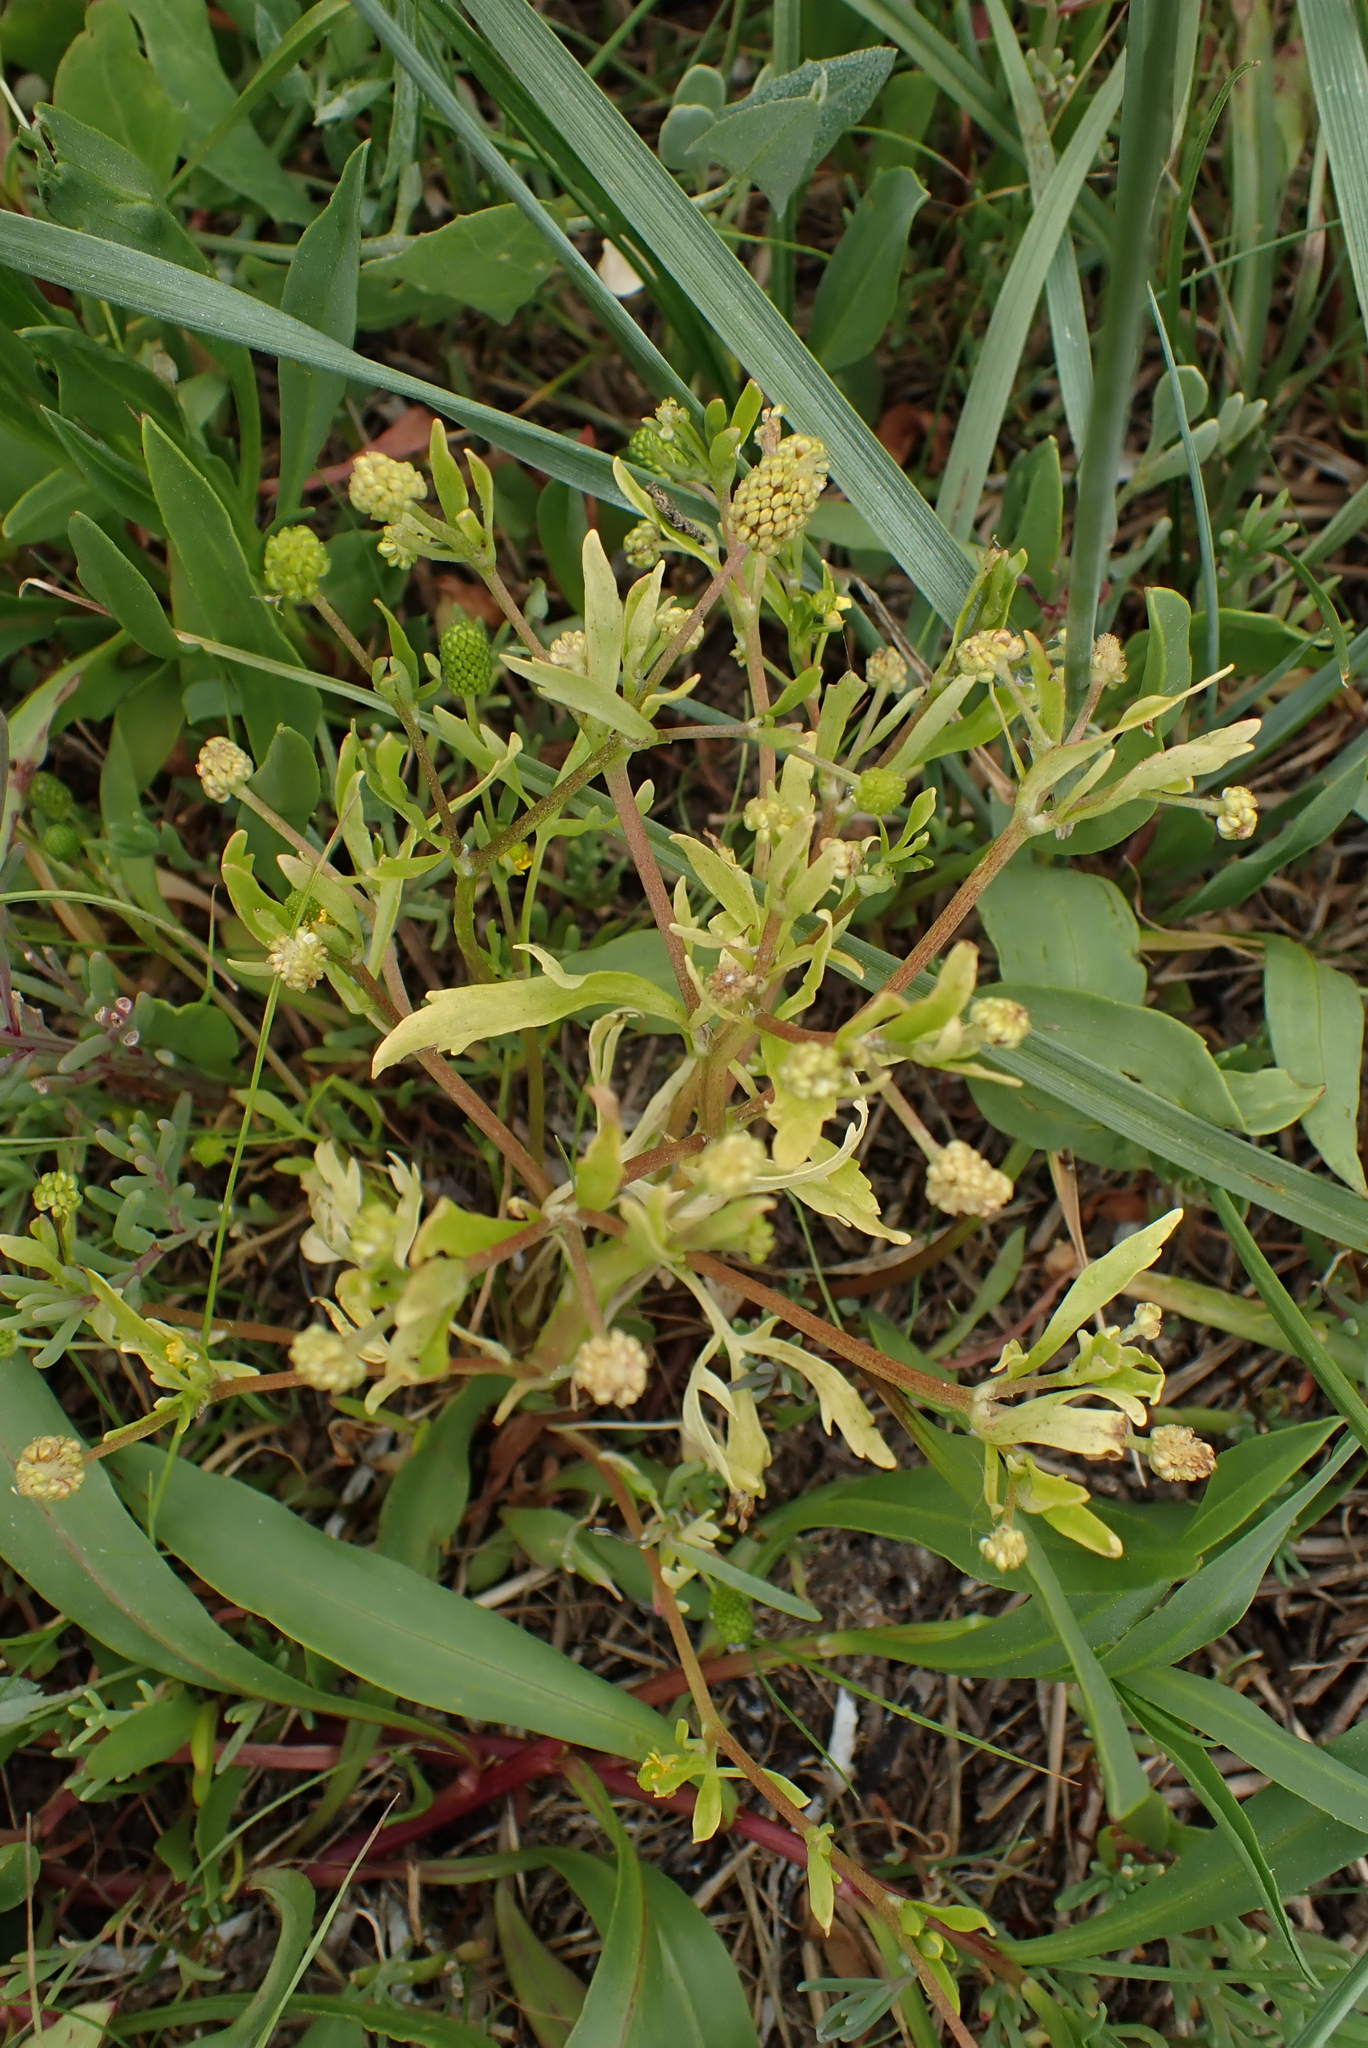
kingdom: Plantae
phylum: Tracheophyta
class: Magnoliopsida
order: Ranunculales
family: Ranunculaceae
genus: Ranunculus
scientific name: Ranunculus sceleratus
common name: Celery-leaved buttercup
